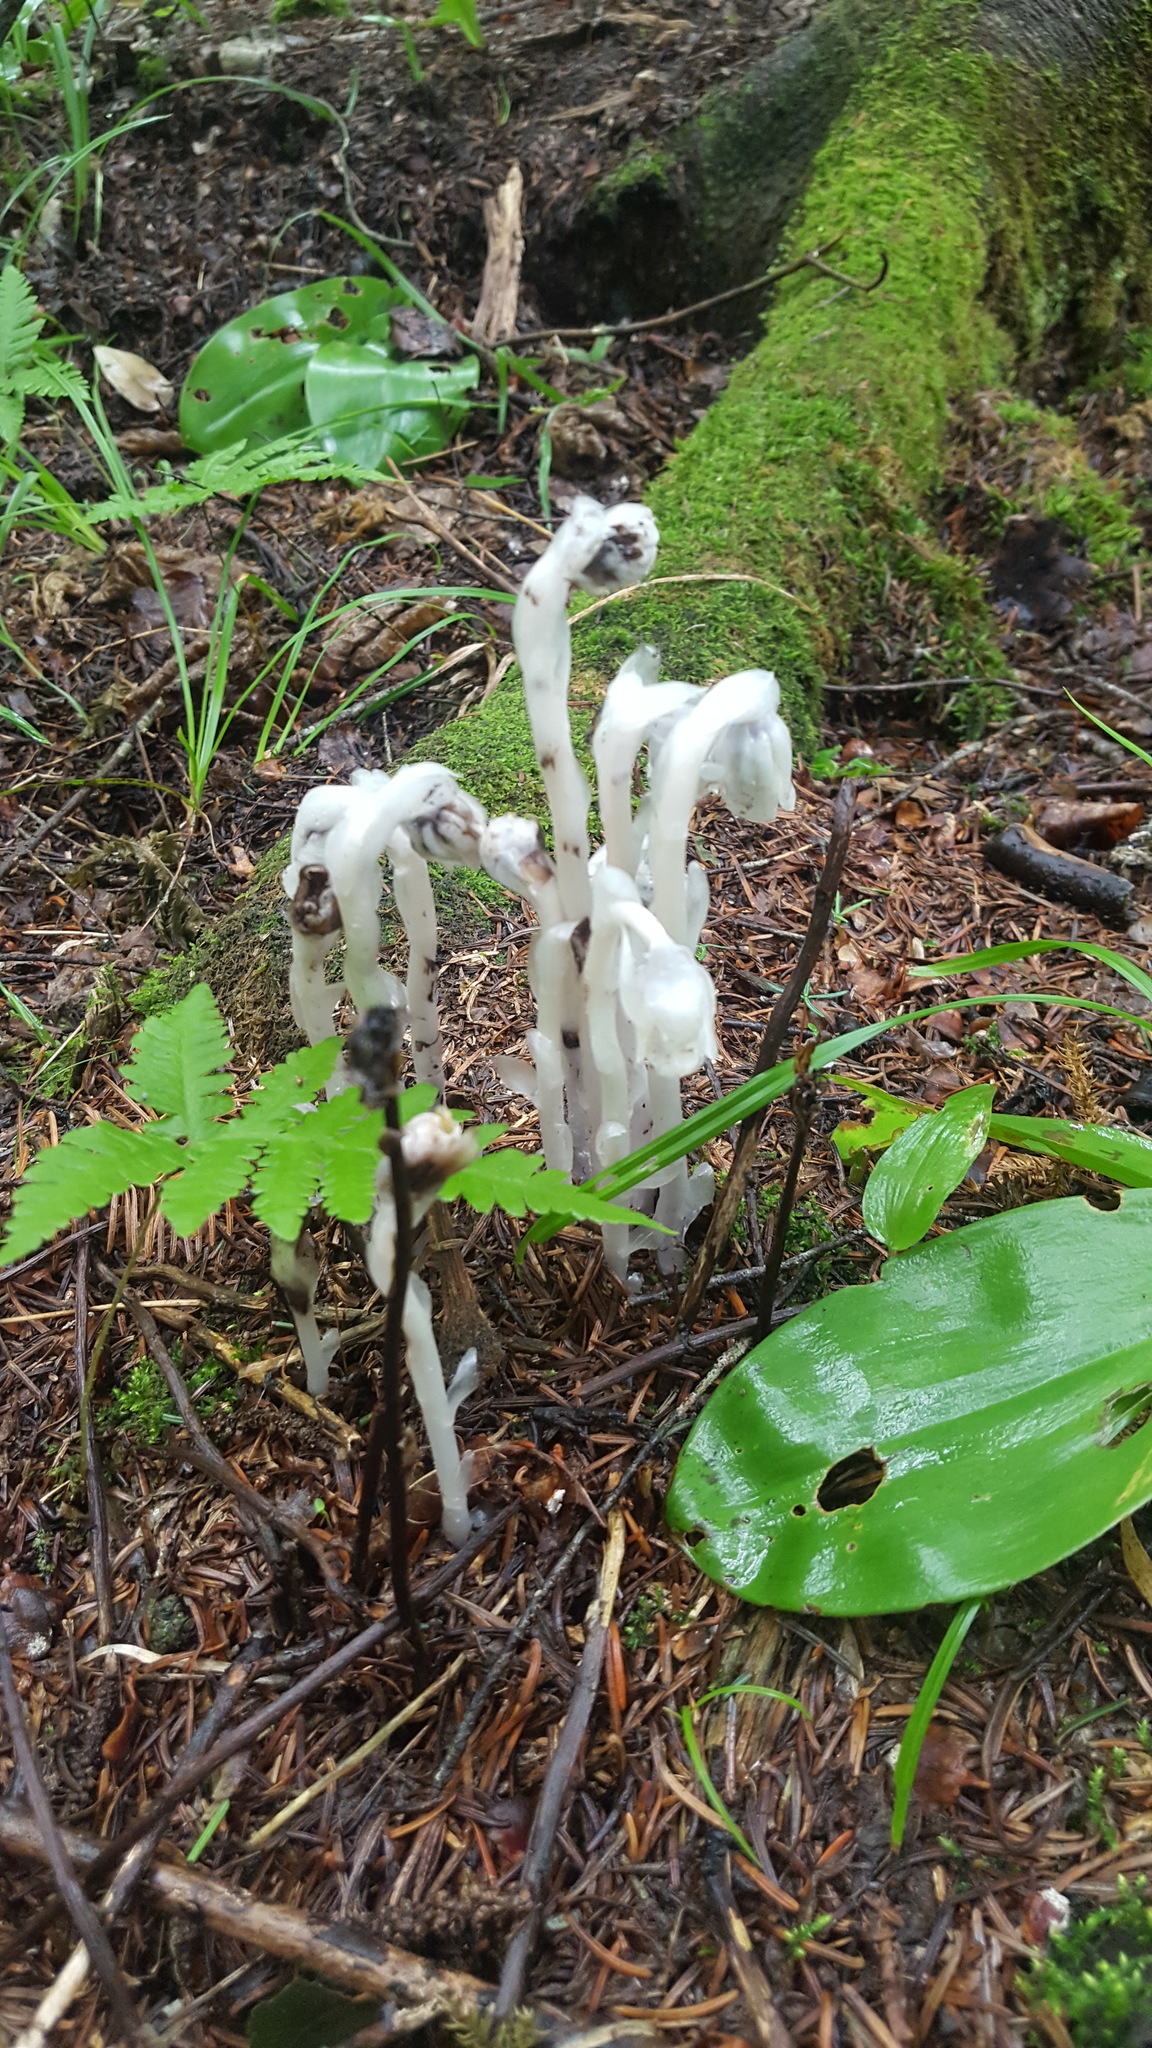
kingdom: Plantae
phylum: Tracheophyta
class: Magnoliopsida
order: Ericales
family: Ericaceae
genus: Monotropa
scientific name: Monotropa uniflora
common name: Convulsion root
